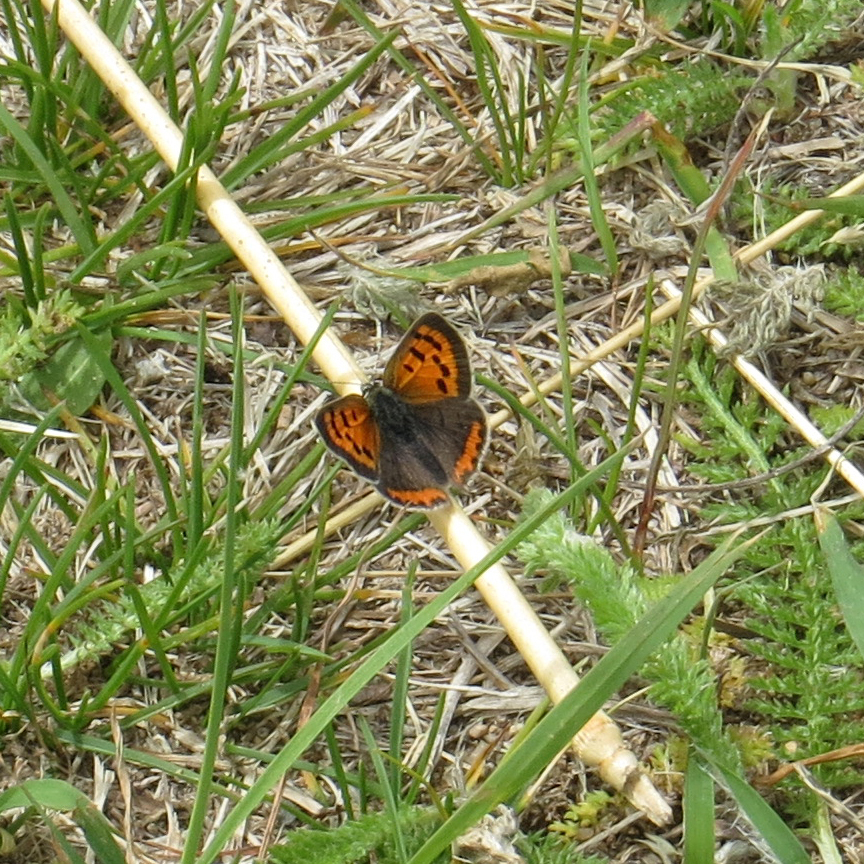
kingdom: Animalia
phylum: Arthropoda
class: Insecta
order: Lepidoptera
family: Lycaenidae
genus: Lycaena
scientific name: Lycaena hypophlaeas
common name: American copper
